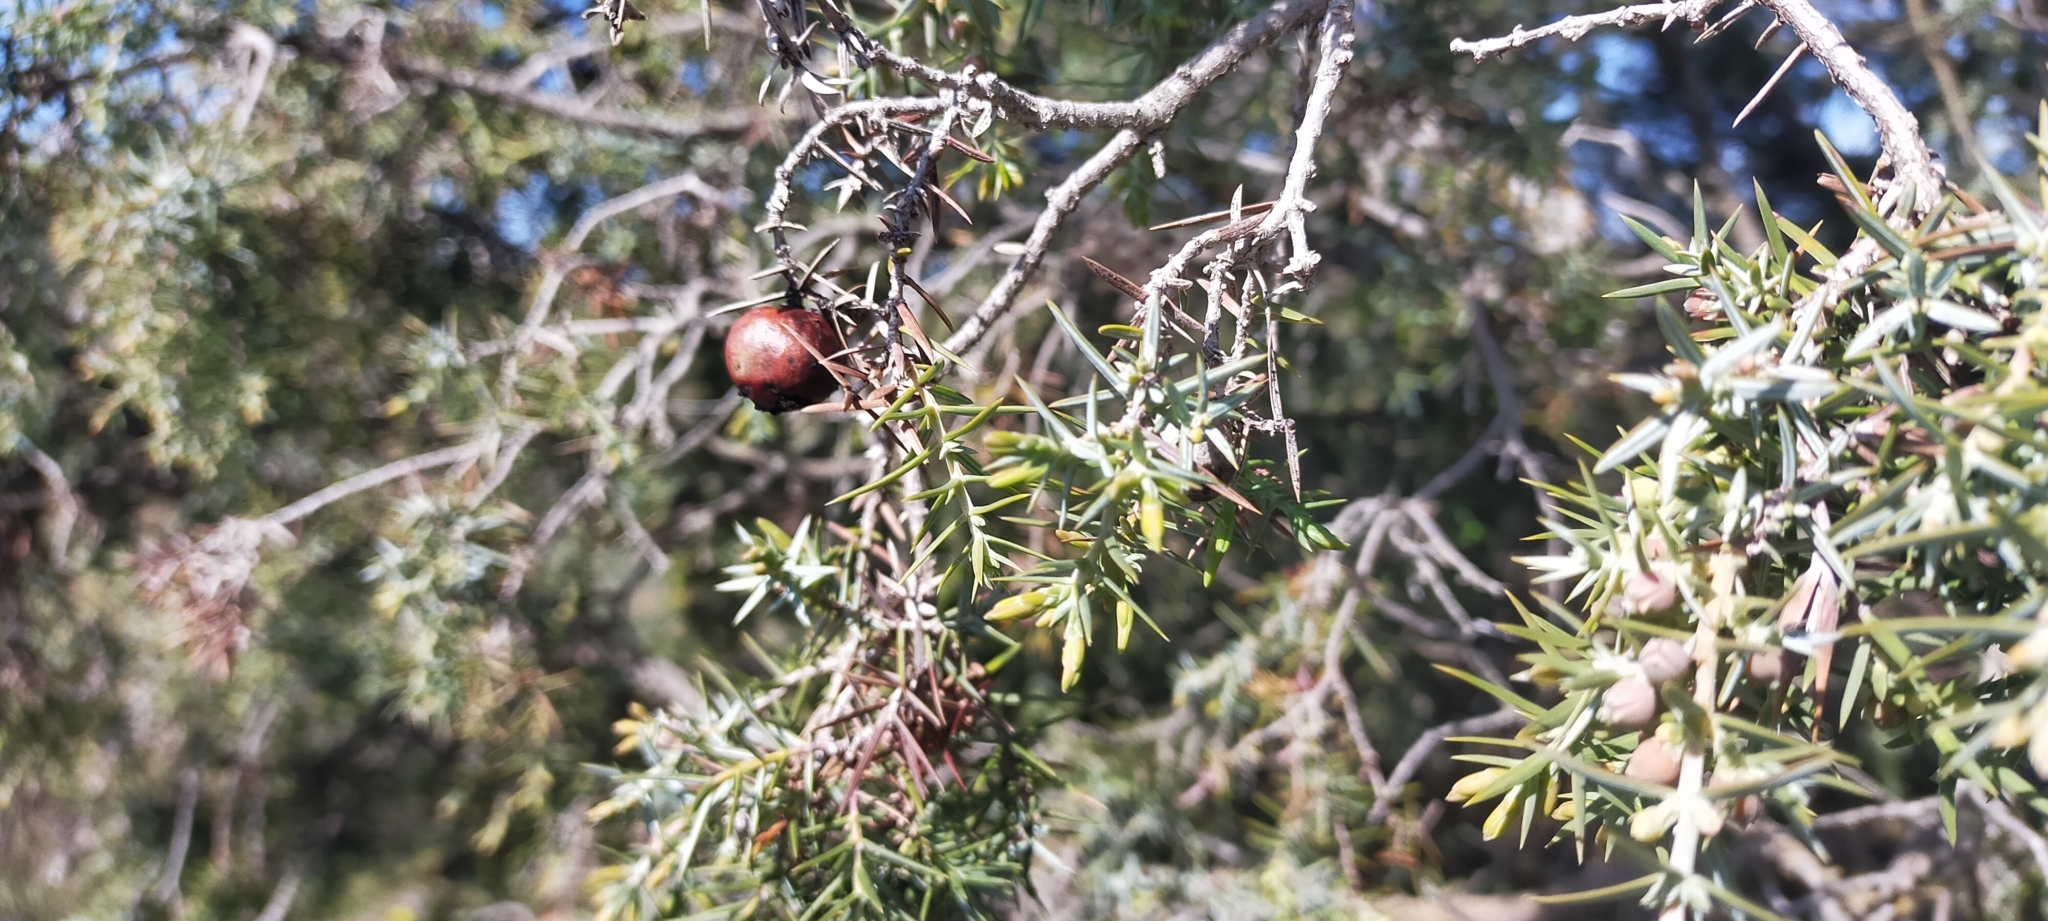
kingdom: Plantae
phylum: Tracheophyta
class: Pinopsida
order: Pinales
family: Cupressaceae
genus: Juniperus
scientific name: Juniperus oxycedrus
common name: Prickly juniper
